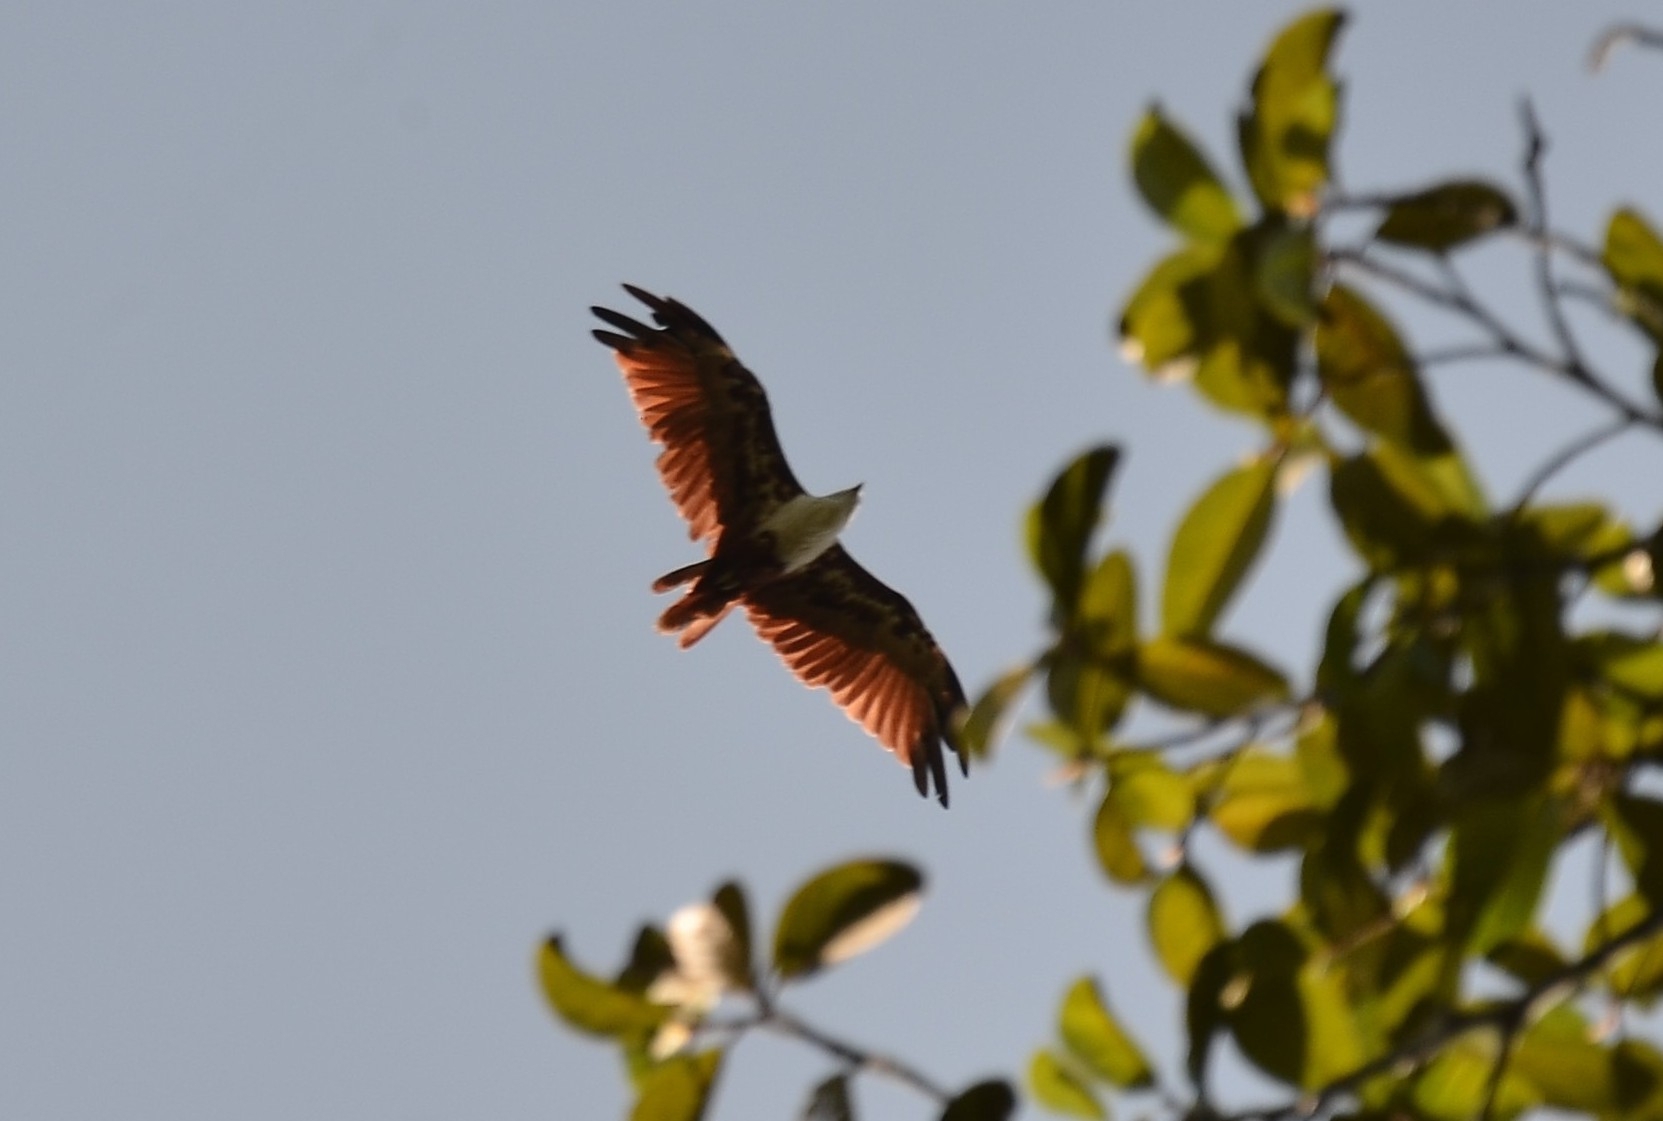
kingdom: Animalia
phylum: Chordata
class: Aves
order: Accipitriformes
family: Accipitridae
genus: Haliastur
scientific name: Haliastur indus
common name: Brahminy kite
